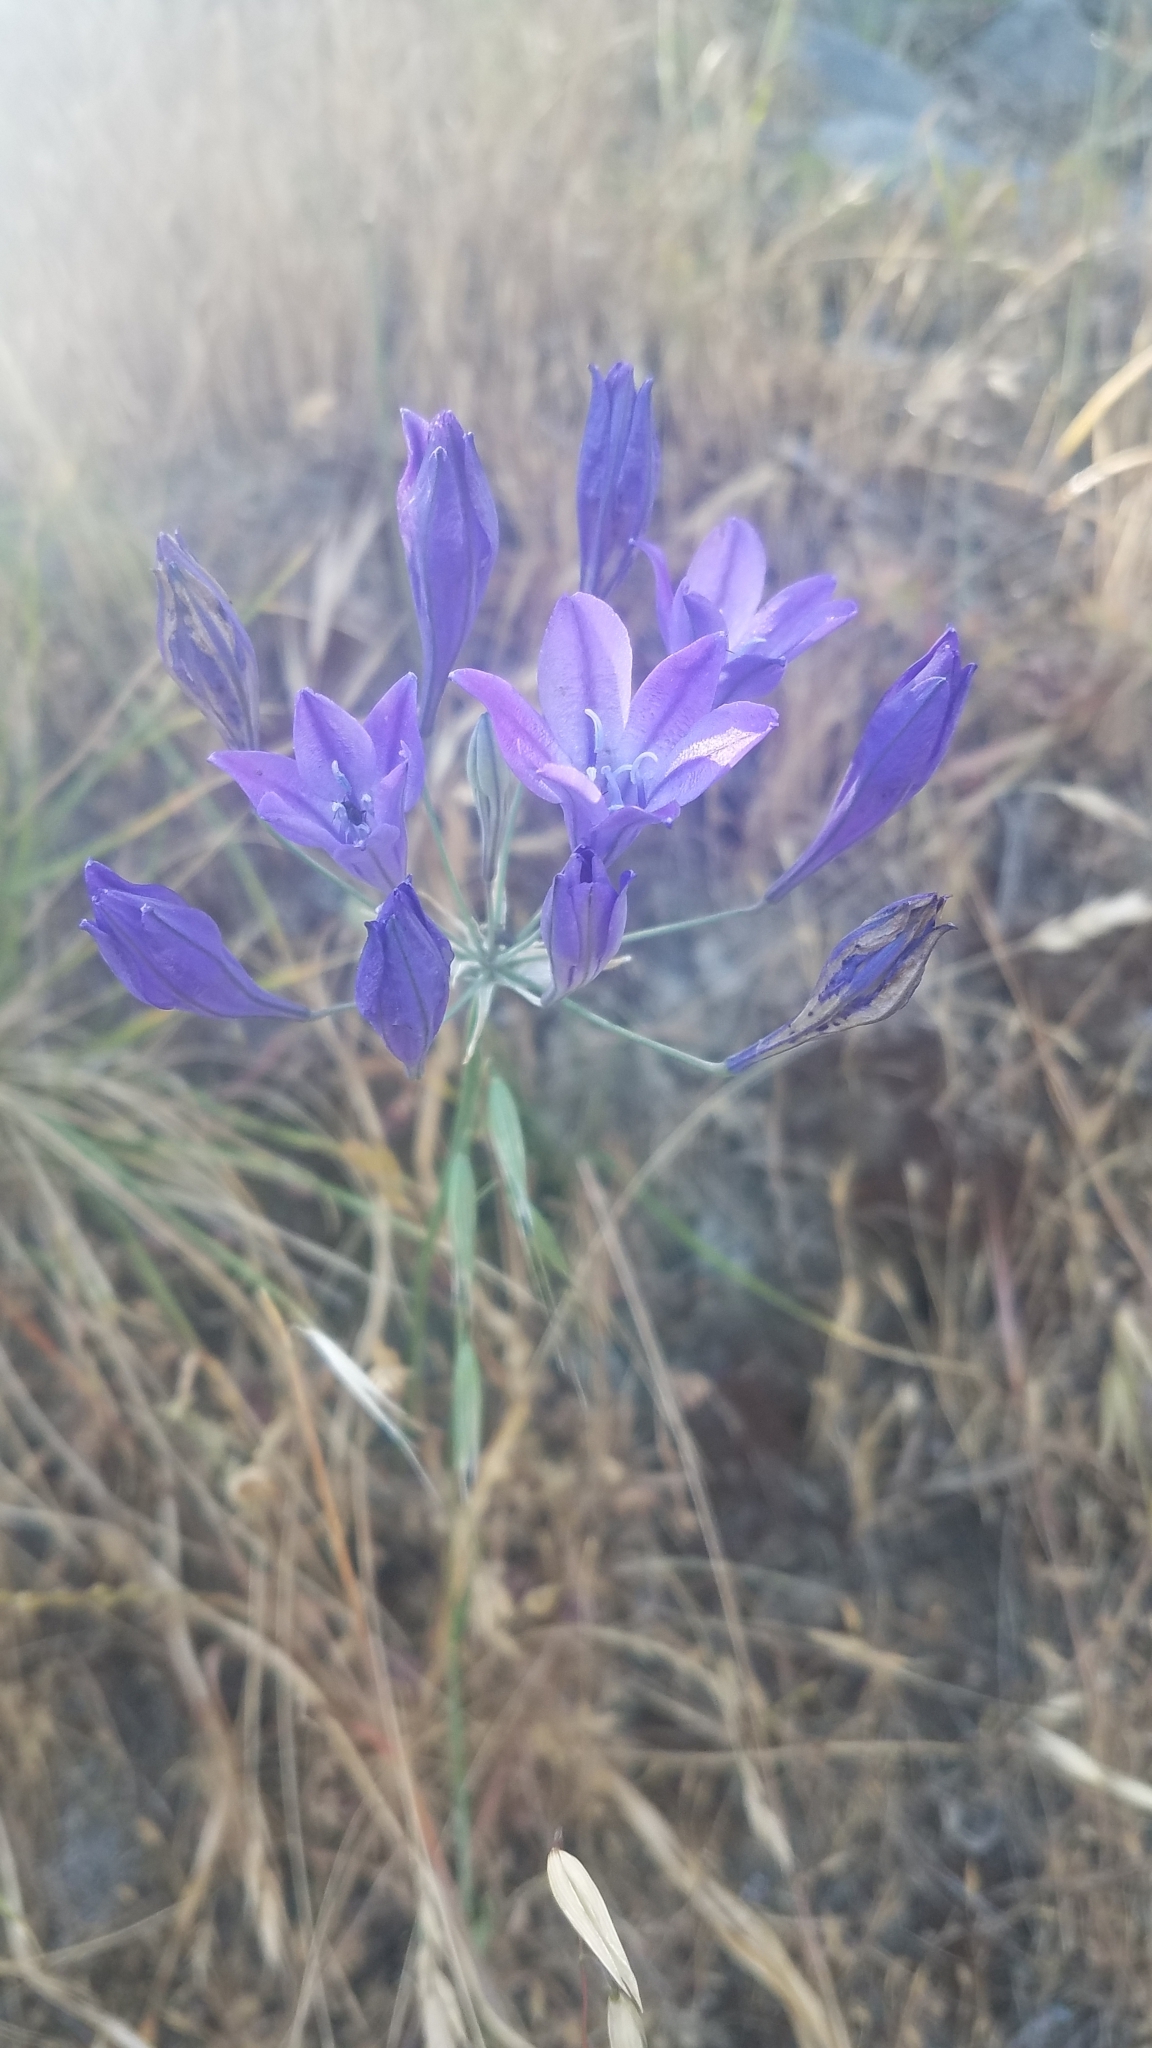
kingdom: Plantae
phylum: Tracheophyta
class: Liliopsida
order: Asparagales
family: Asparagaceae
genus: Triteleia
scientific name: Triteleia laxa
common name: Triplet-lily
